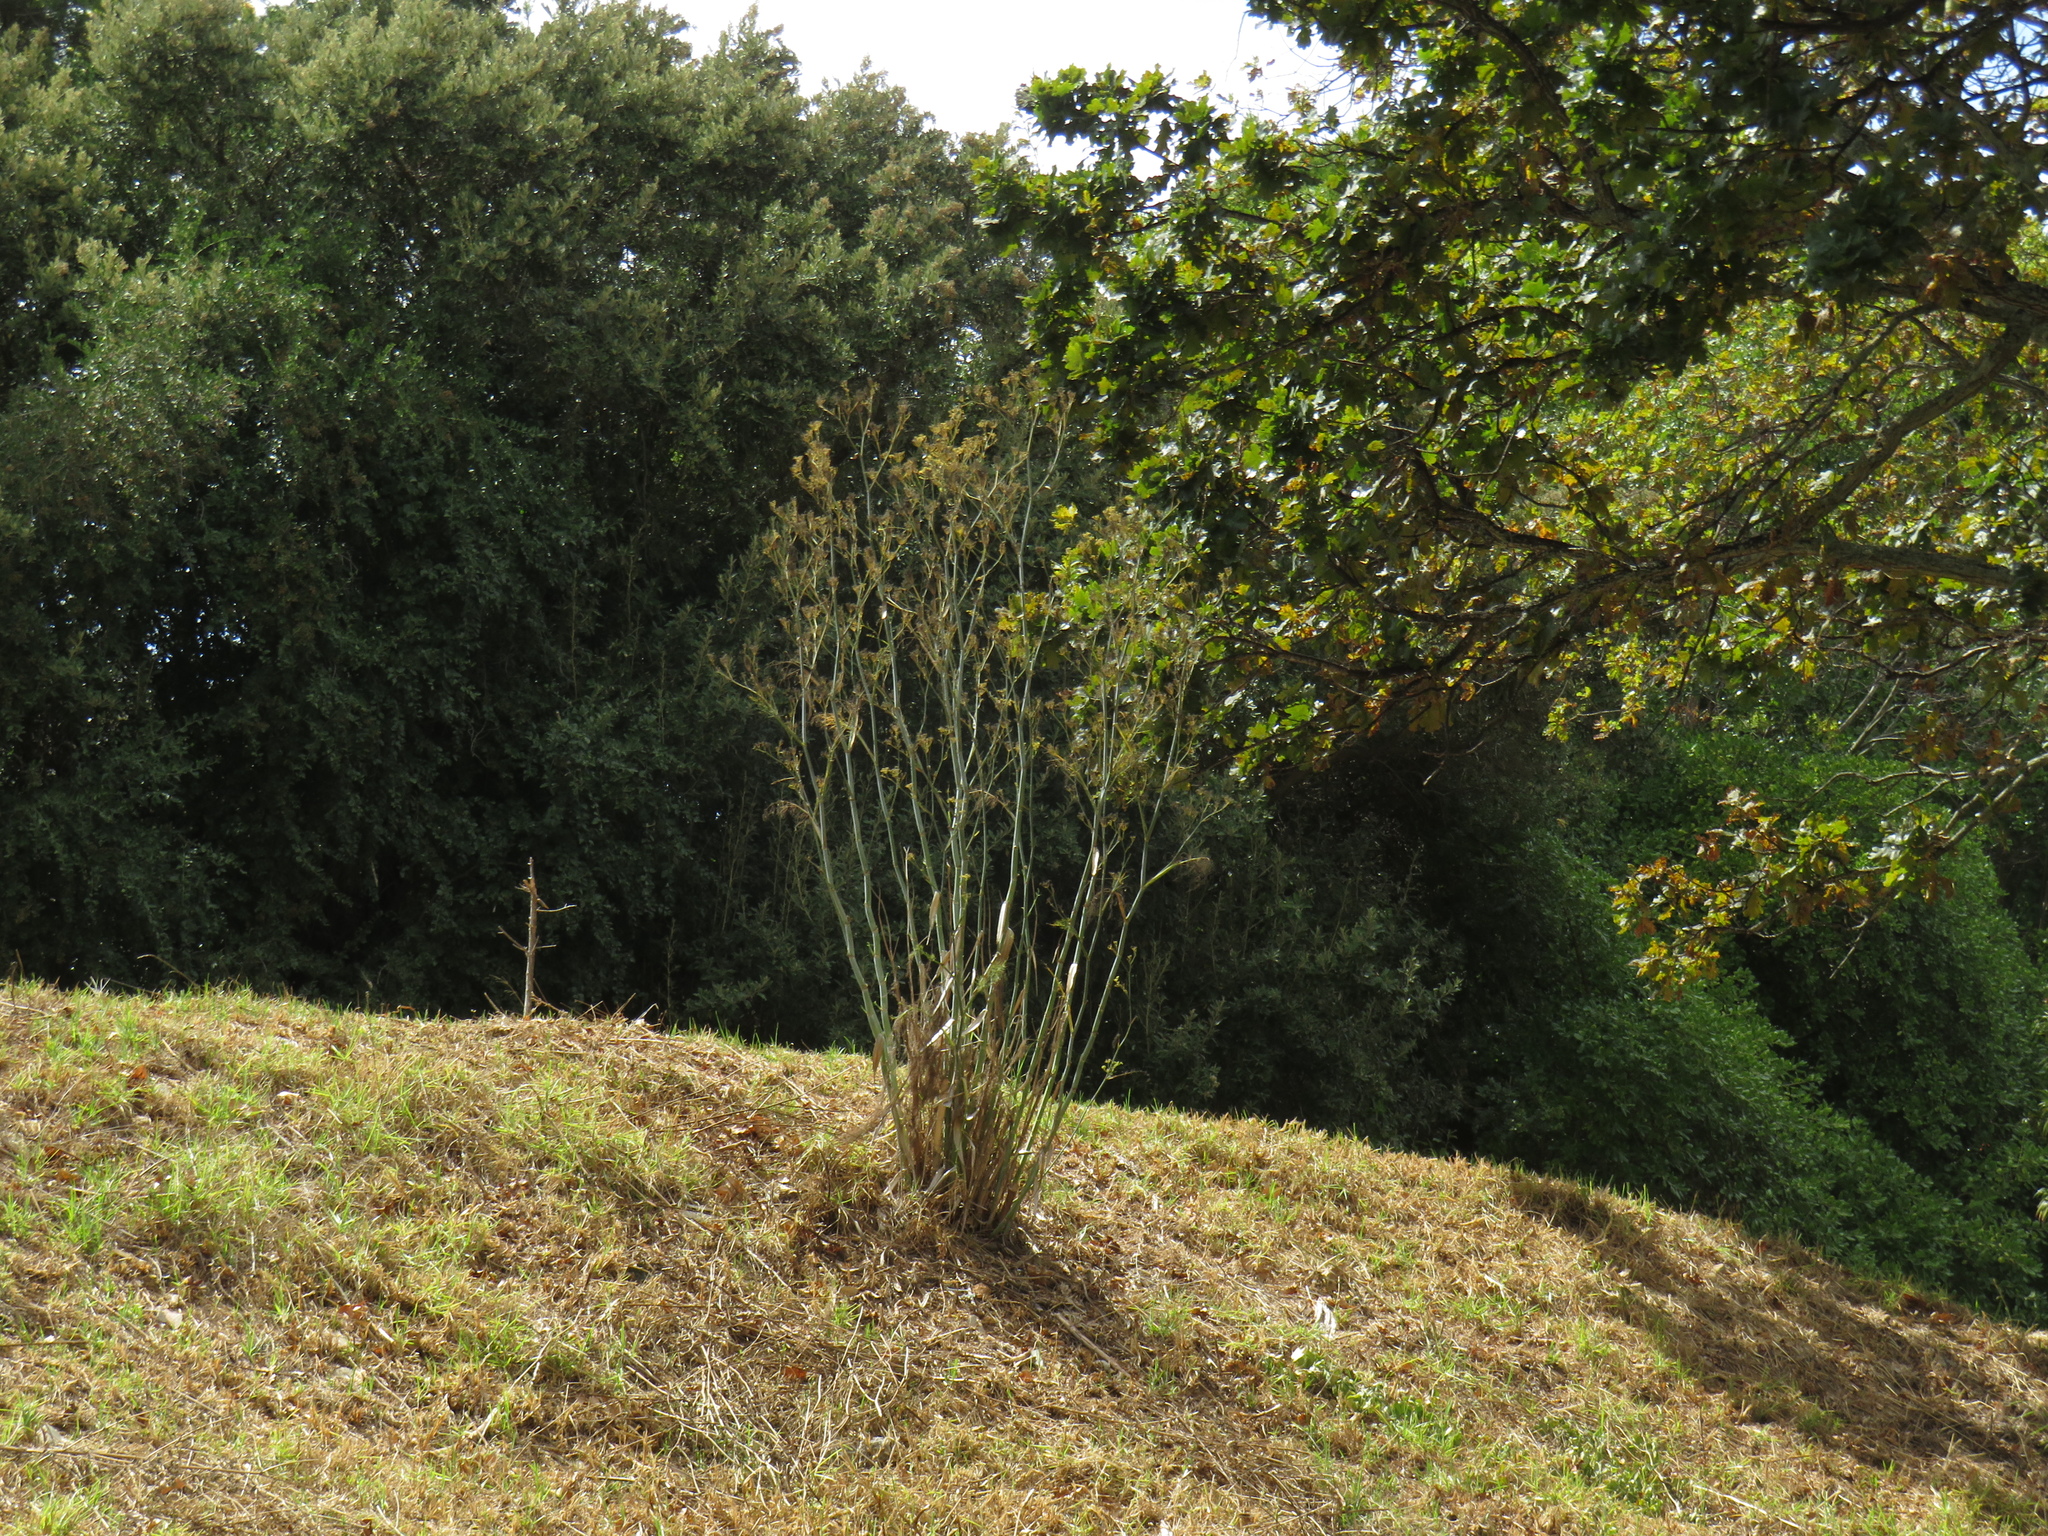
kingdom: Plantae
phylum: Tracheophyta
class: Magnoliopsida
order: Apiales
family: Apiaceae
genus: Foeniculum
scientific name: Foeniculum vulgare
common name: Fennel
